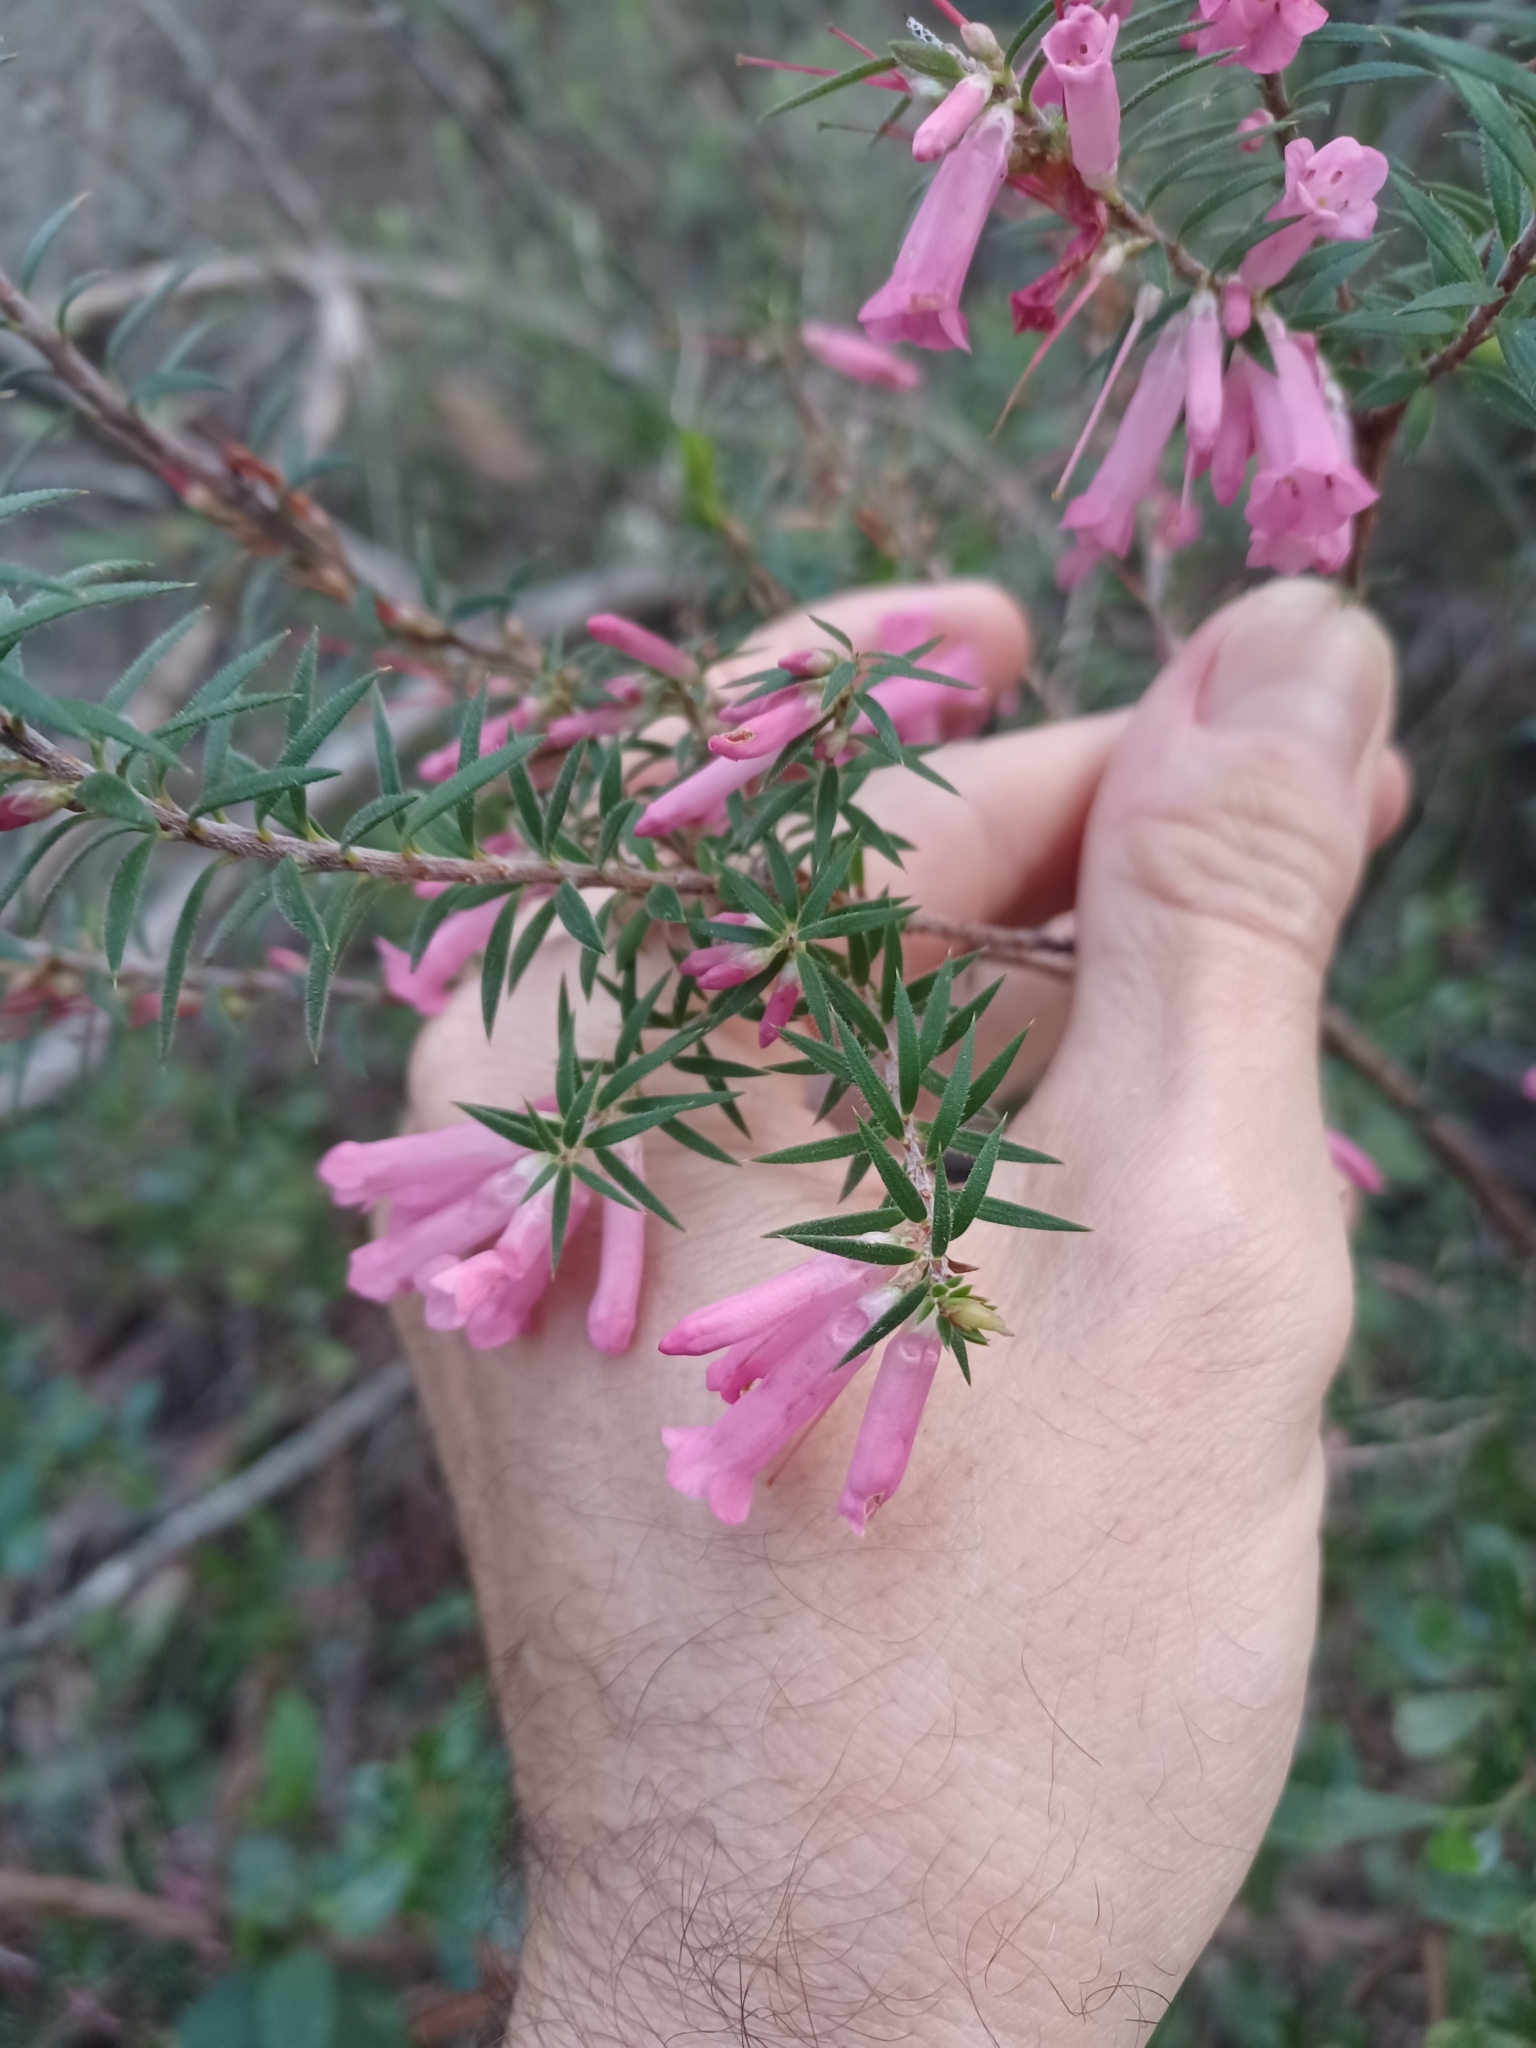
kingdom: Plantae
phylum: Tracheophyta
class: Magnoliopsida
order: Ericales
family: Ericaceae
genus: Epacris
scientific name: Epacris impressa
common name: Common-heath
